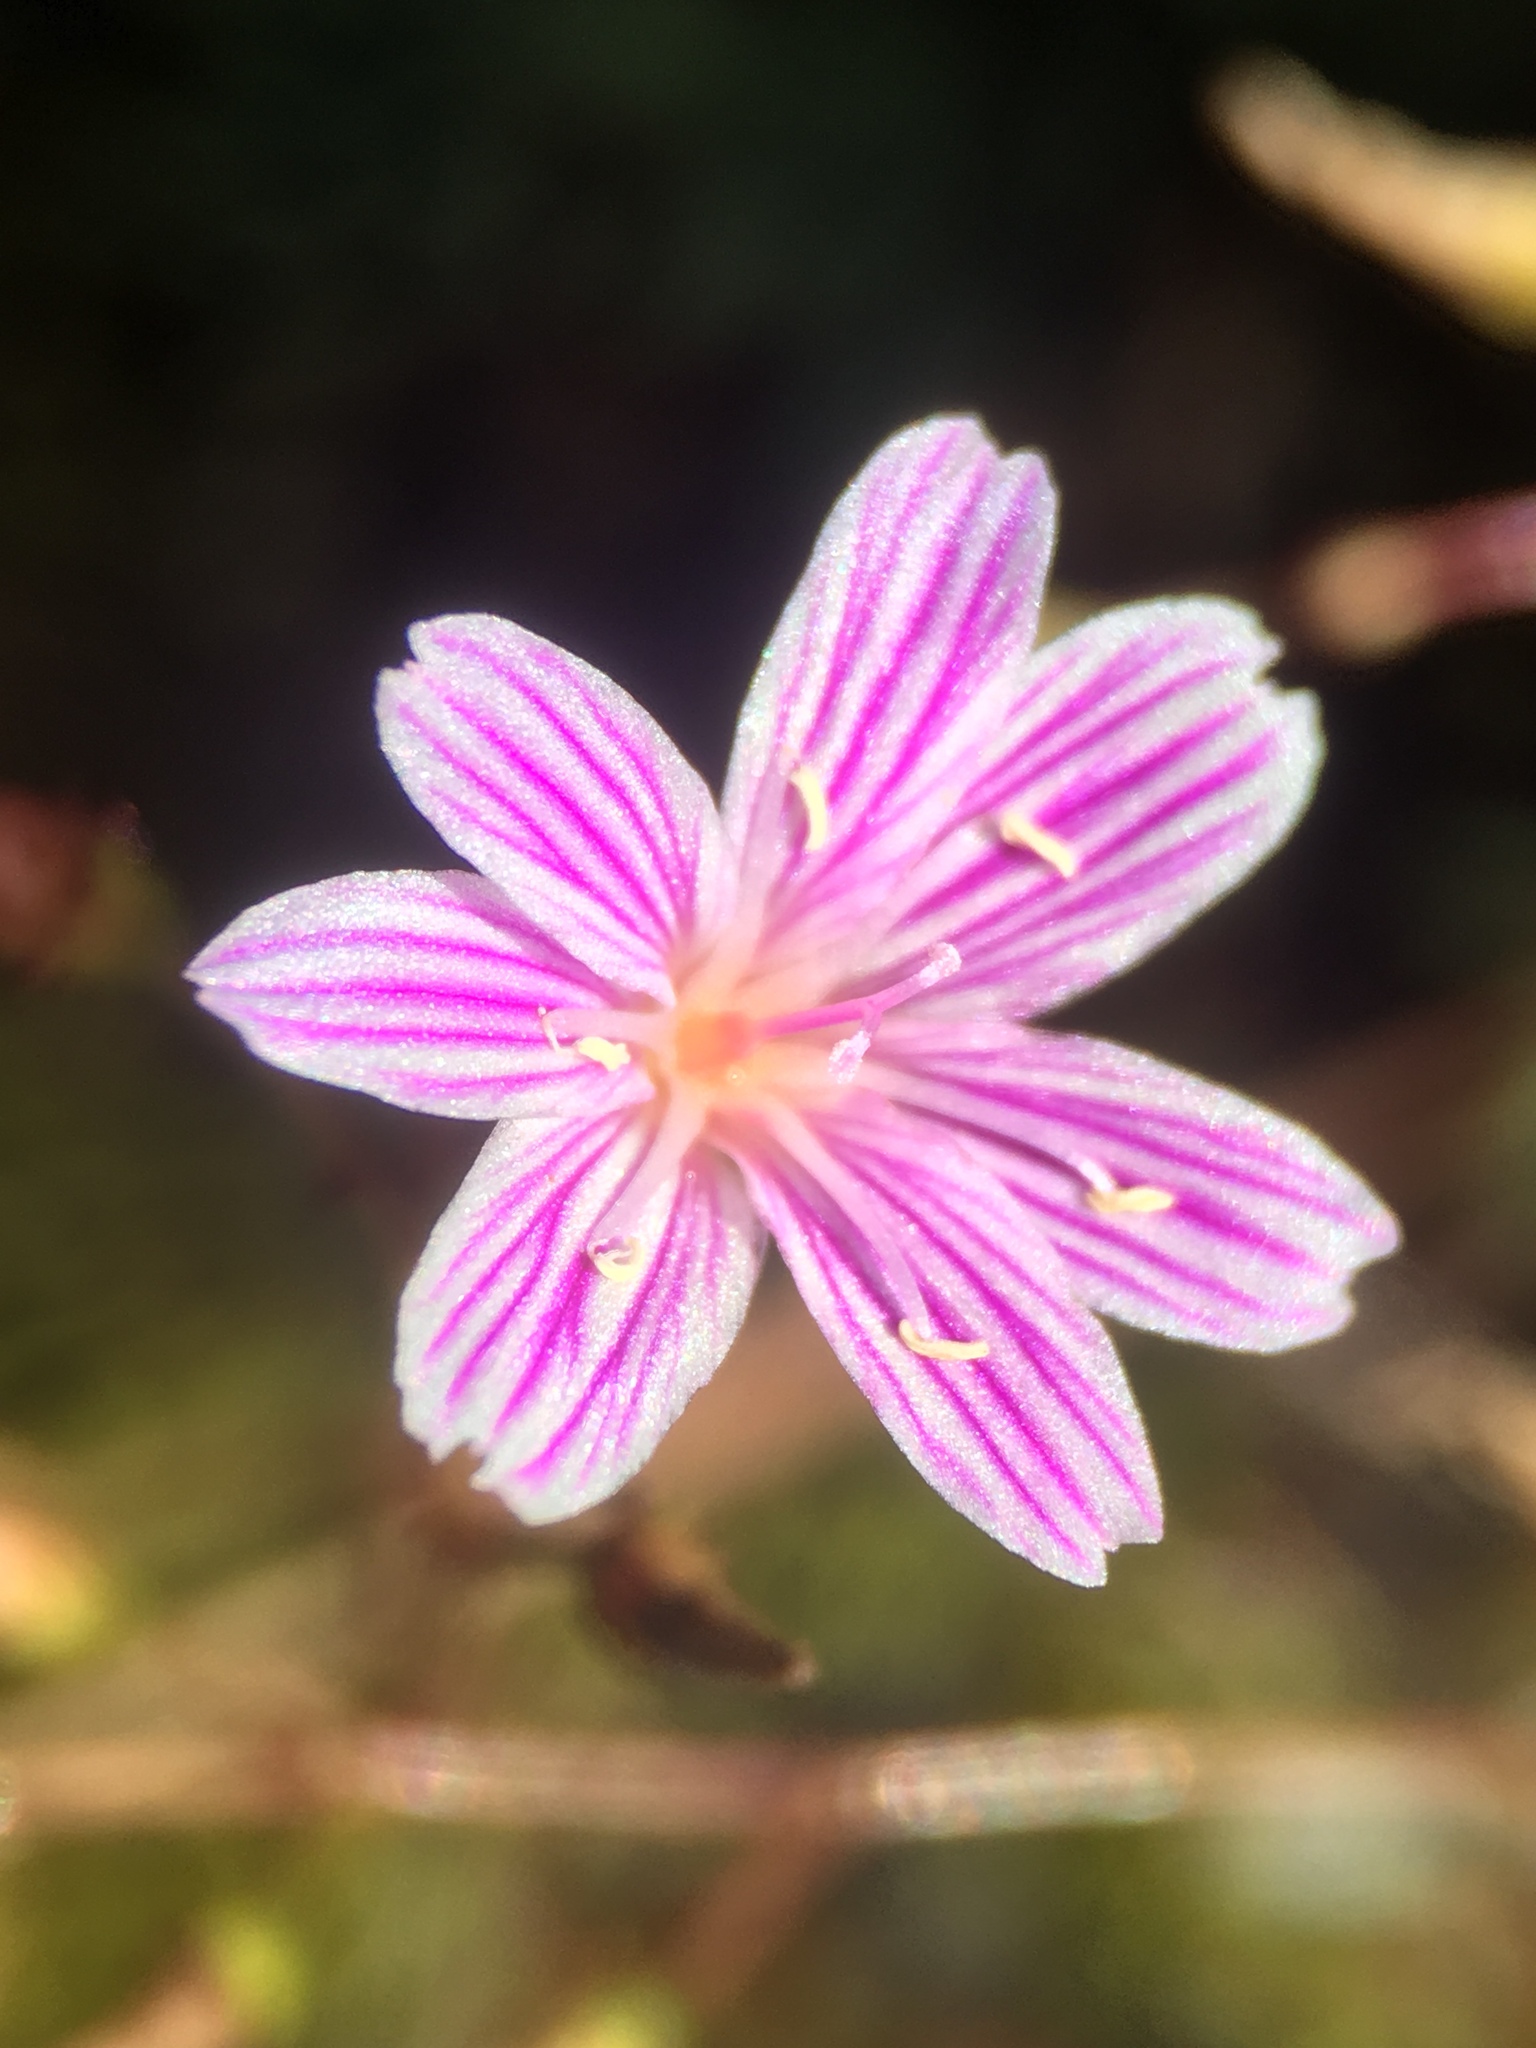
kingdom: Plantae
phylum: Tracheophyta
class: Magnoliopsida
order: Caryophyllales
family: Montiaceae
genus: Lewisia
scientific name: Lewisia columbiana
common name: Columbia lewisia
